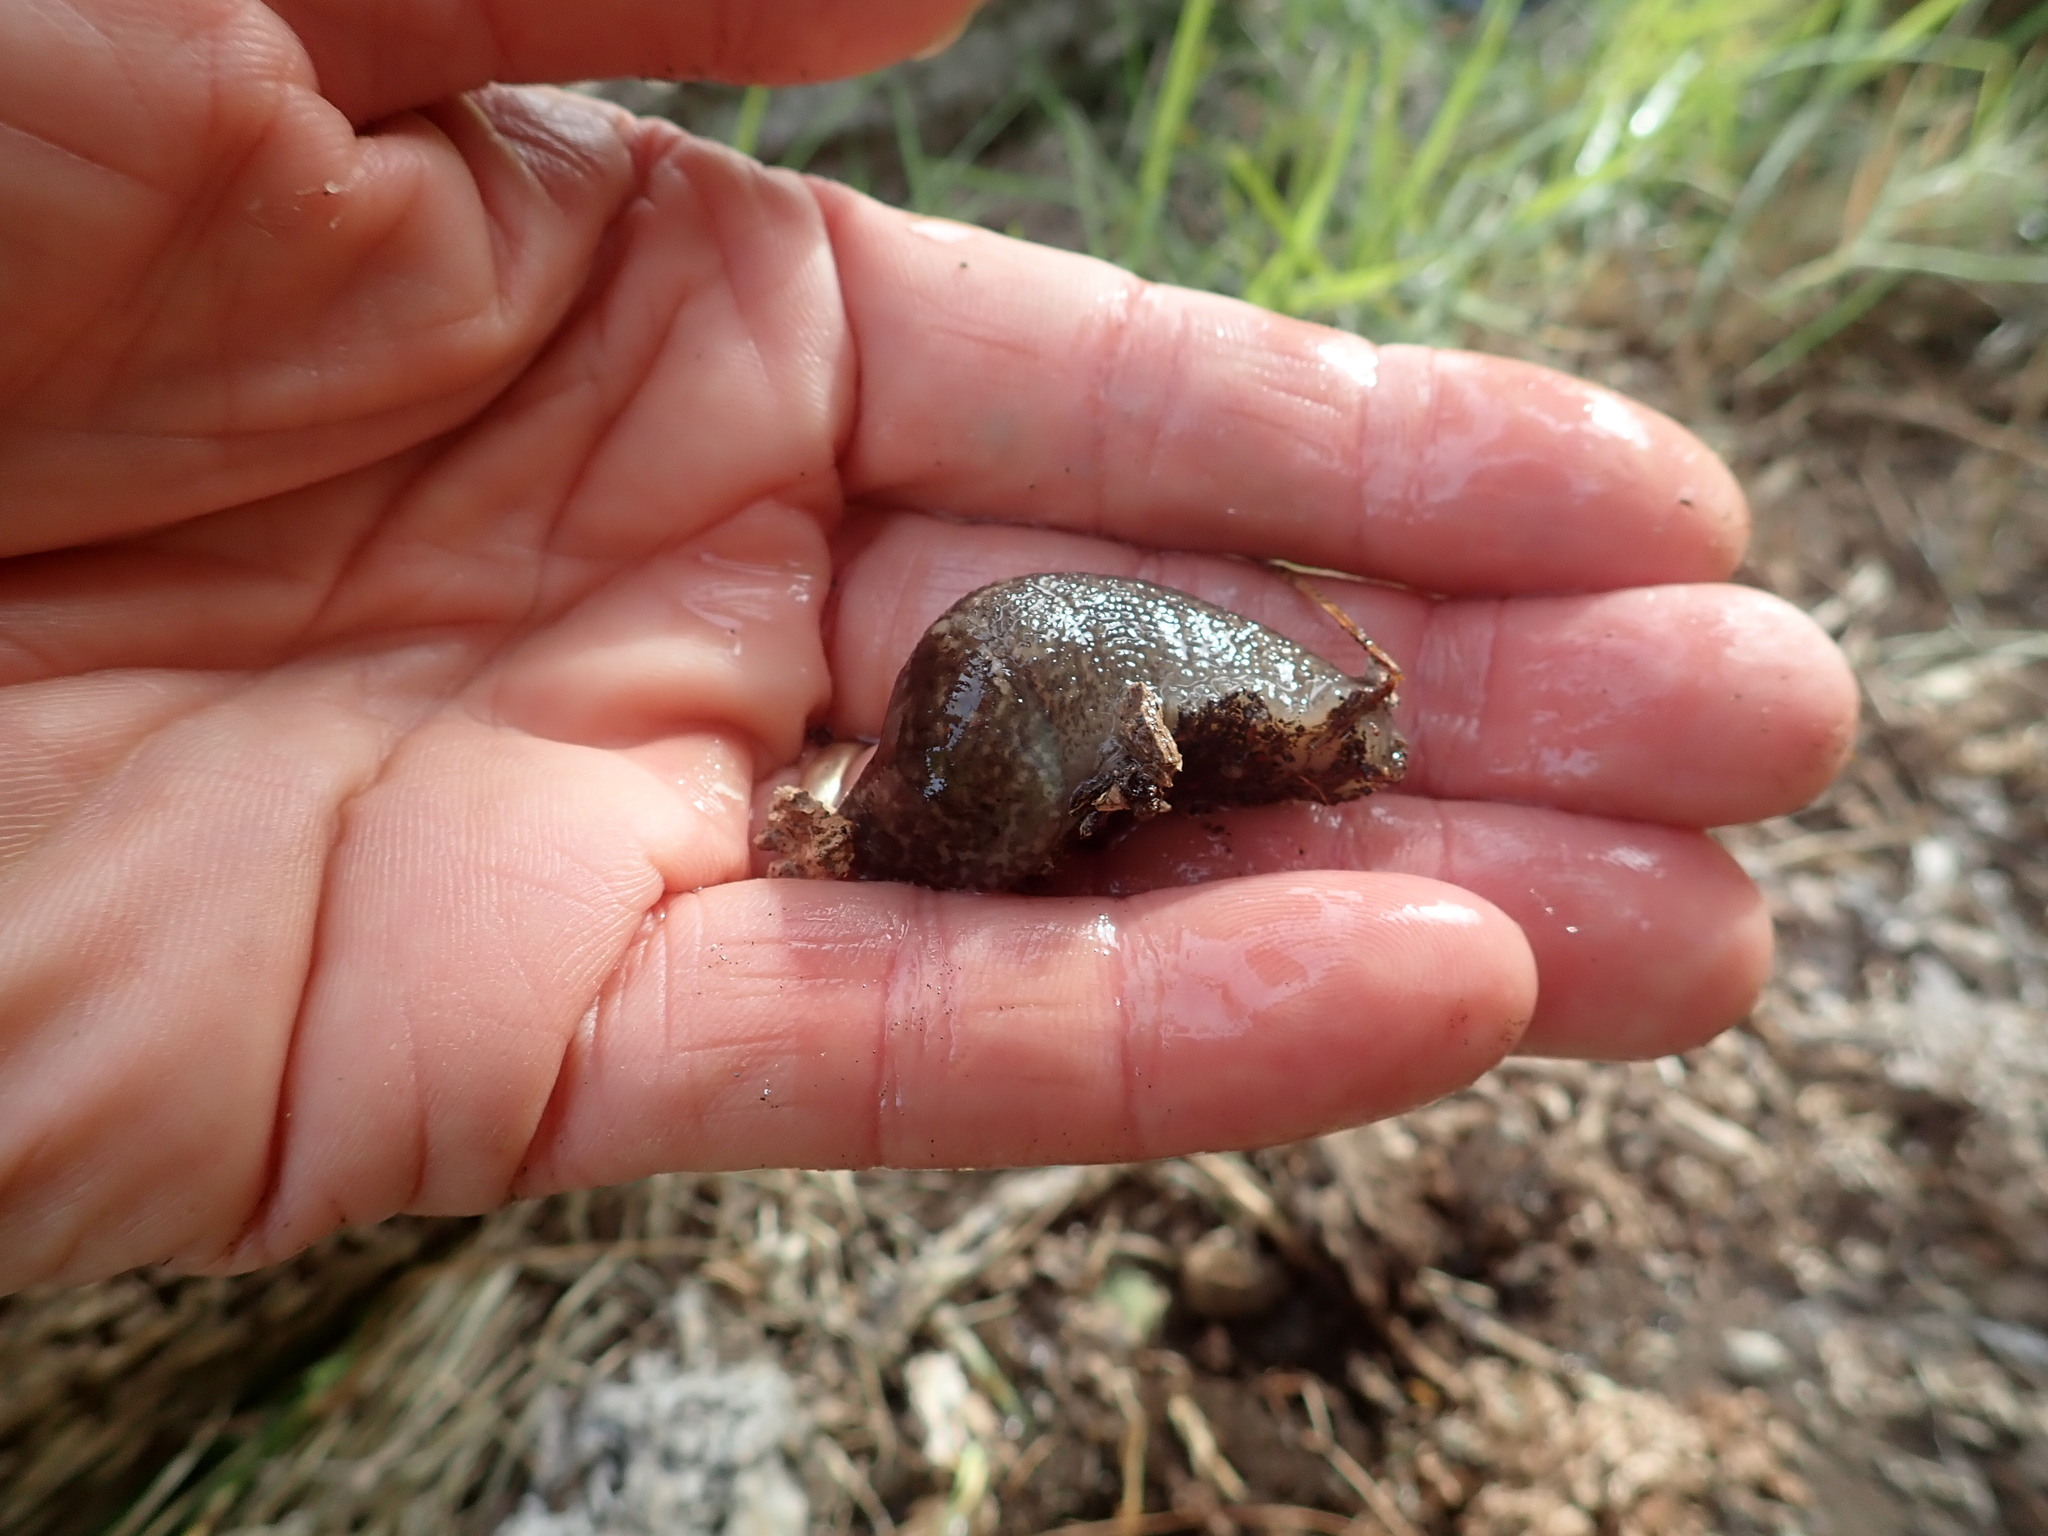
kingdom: Animalia
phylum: Mollusca
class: Gastropoda
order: Stylommatophora
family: Limacidae
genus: Limax
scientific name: Limax maximus
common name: Great grey slug
